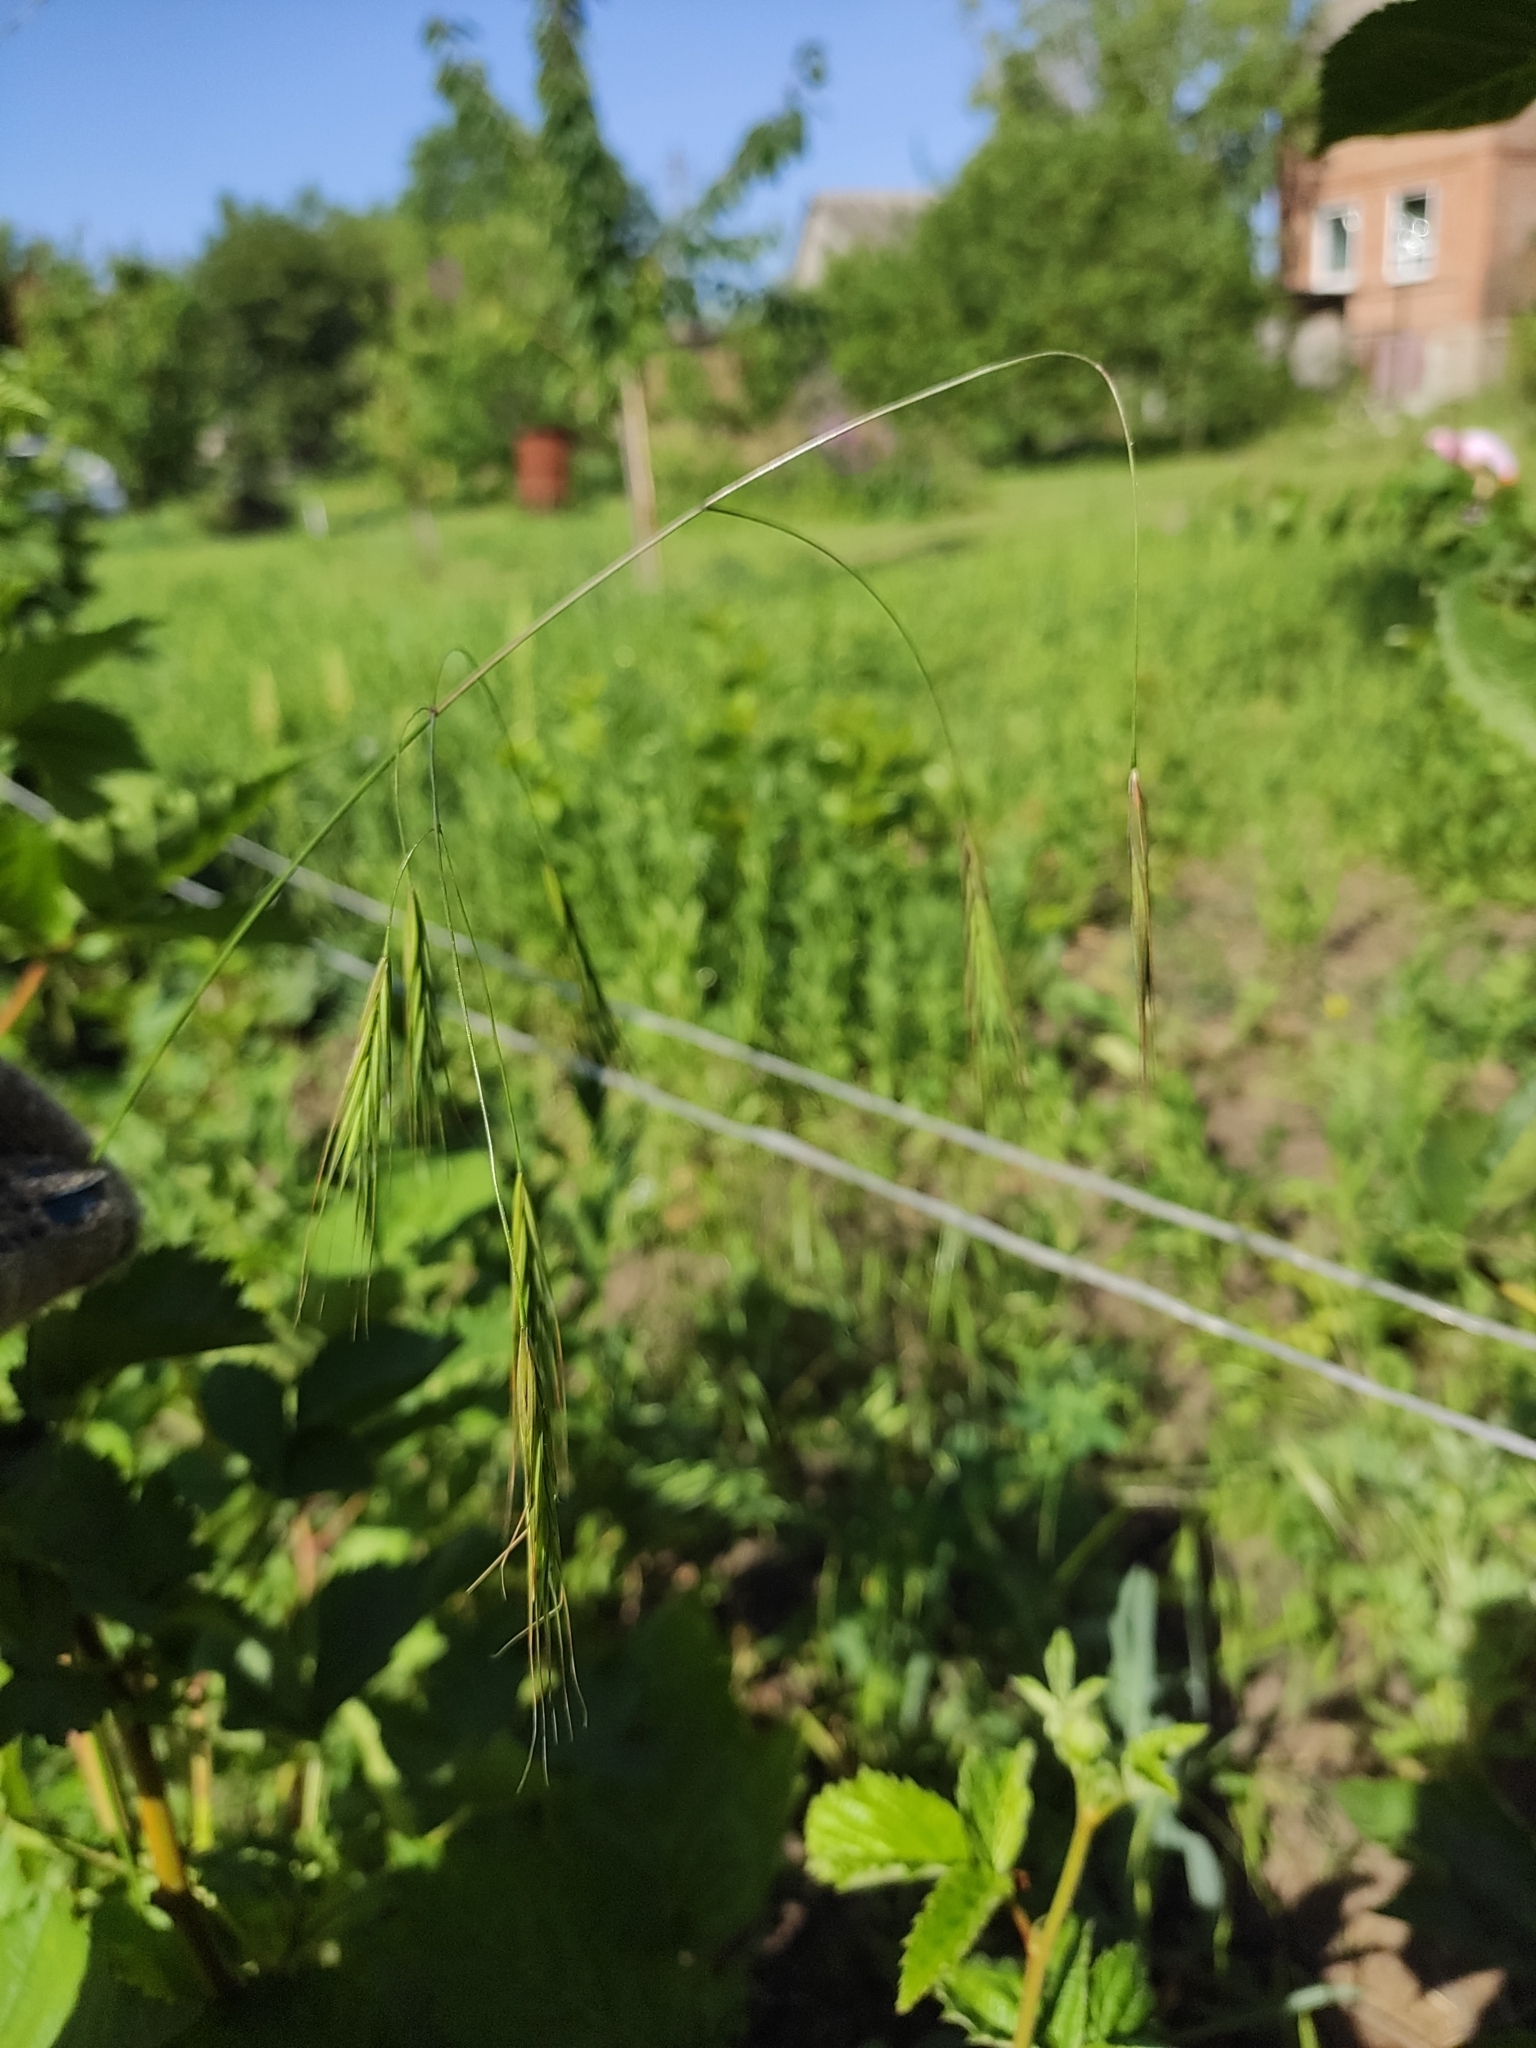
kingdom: Plantae
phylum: Tracheophyta
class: Liliopsida
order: Poales
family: Poaceae
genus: Bromus
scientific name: Bromus sterilis
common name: Poverty brome
